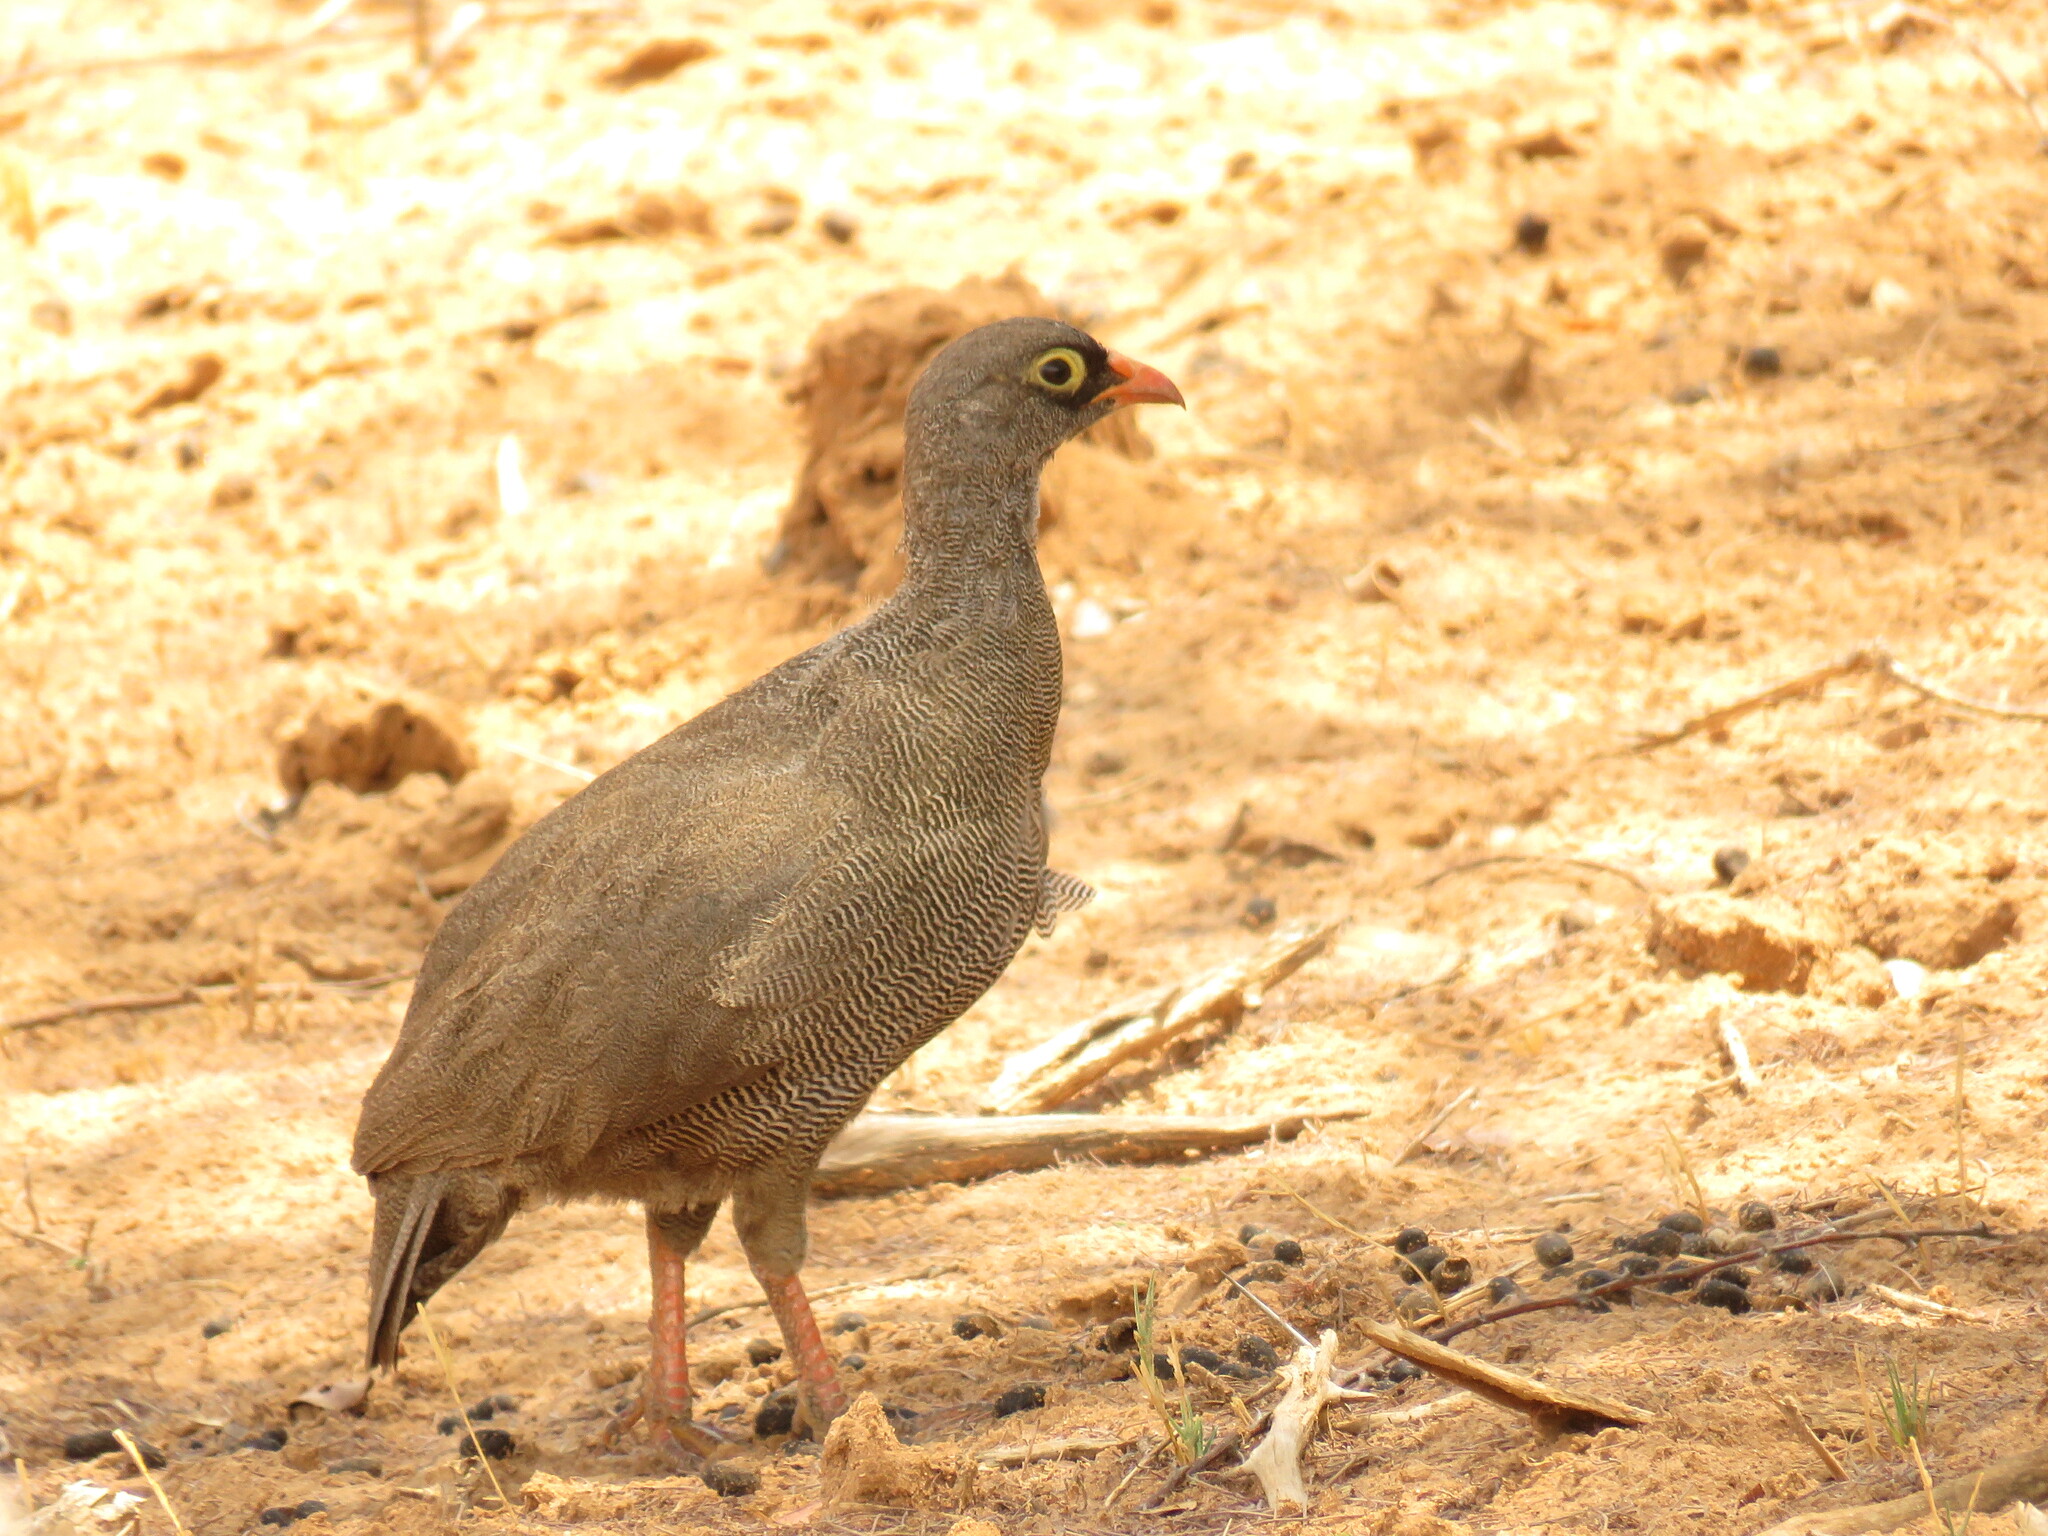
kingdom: Animalia
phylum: Chordata
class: Aves
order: Galliformes
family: Phasianidae
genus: Pternistis
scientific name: Pternistis adspersus
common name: Red-billed spurfowl
